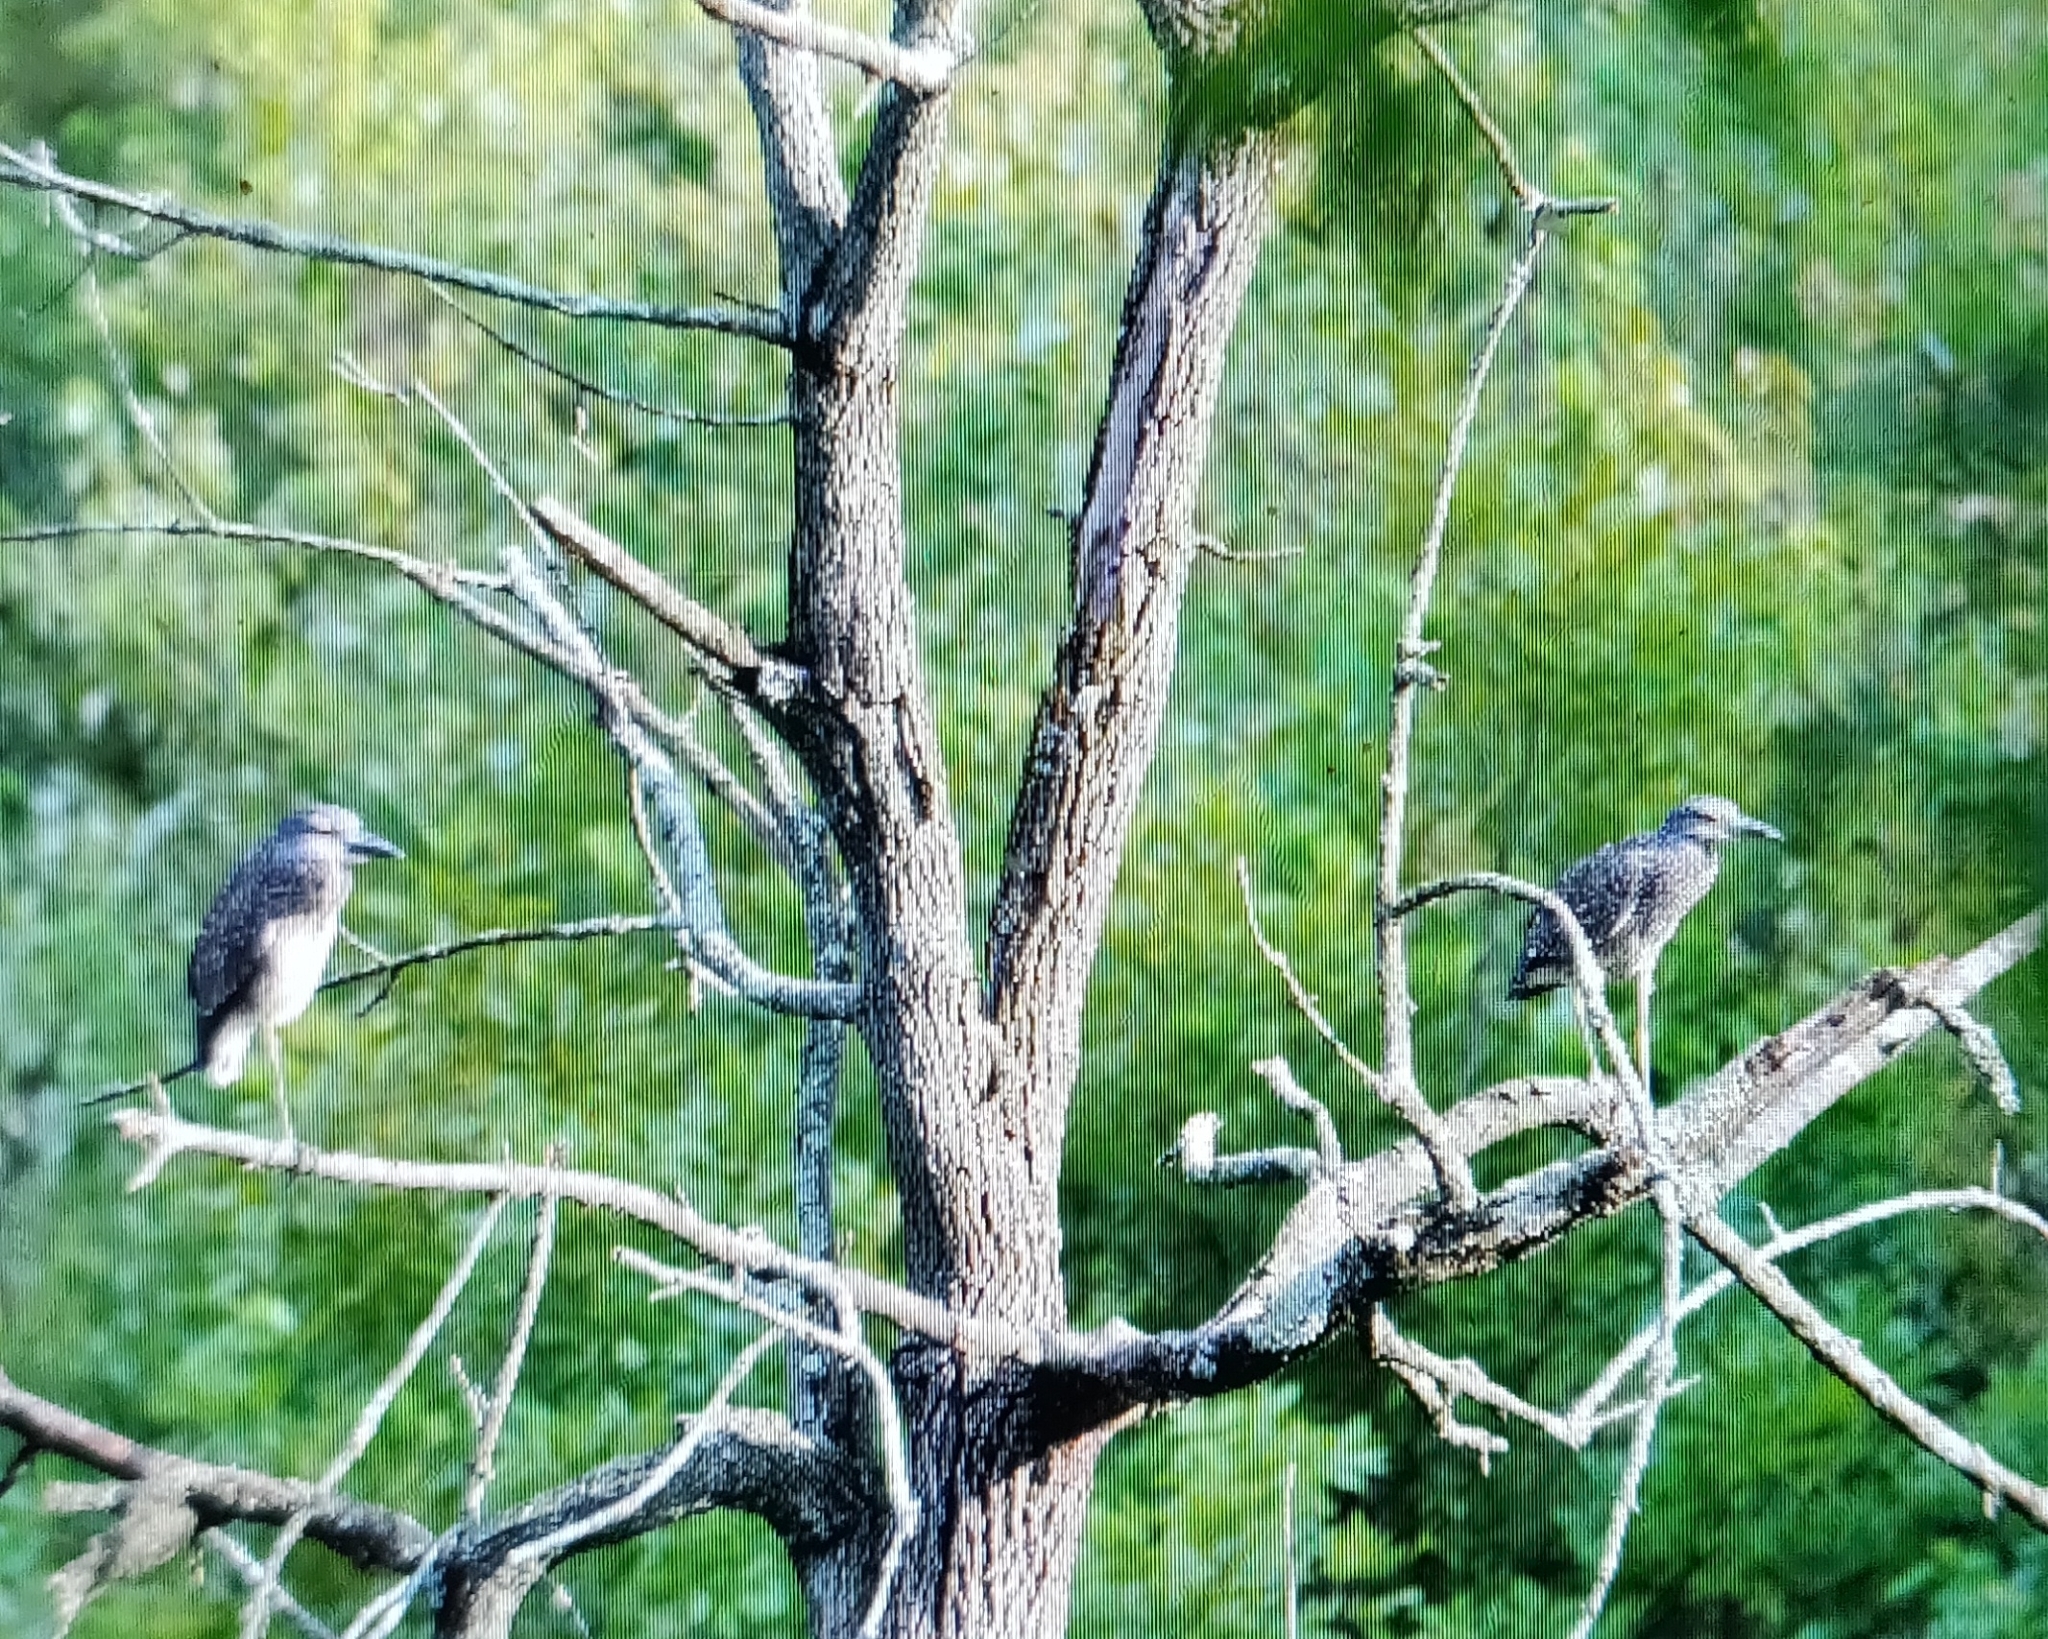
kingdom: Animalia
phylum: Chordata
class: Aves
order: Pelecaniformes
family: Ardeidae
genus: Nyctanassa
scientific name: Nyctanassa violacea
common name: Yellow-crowned night heron
